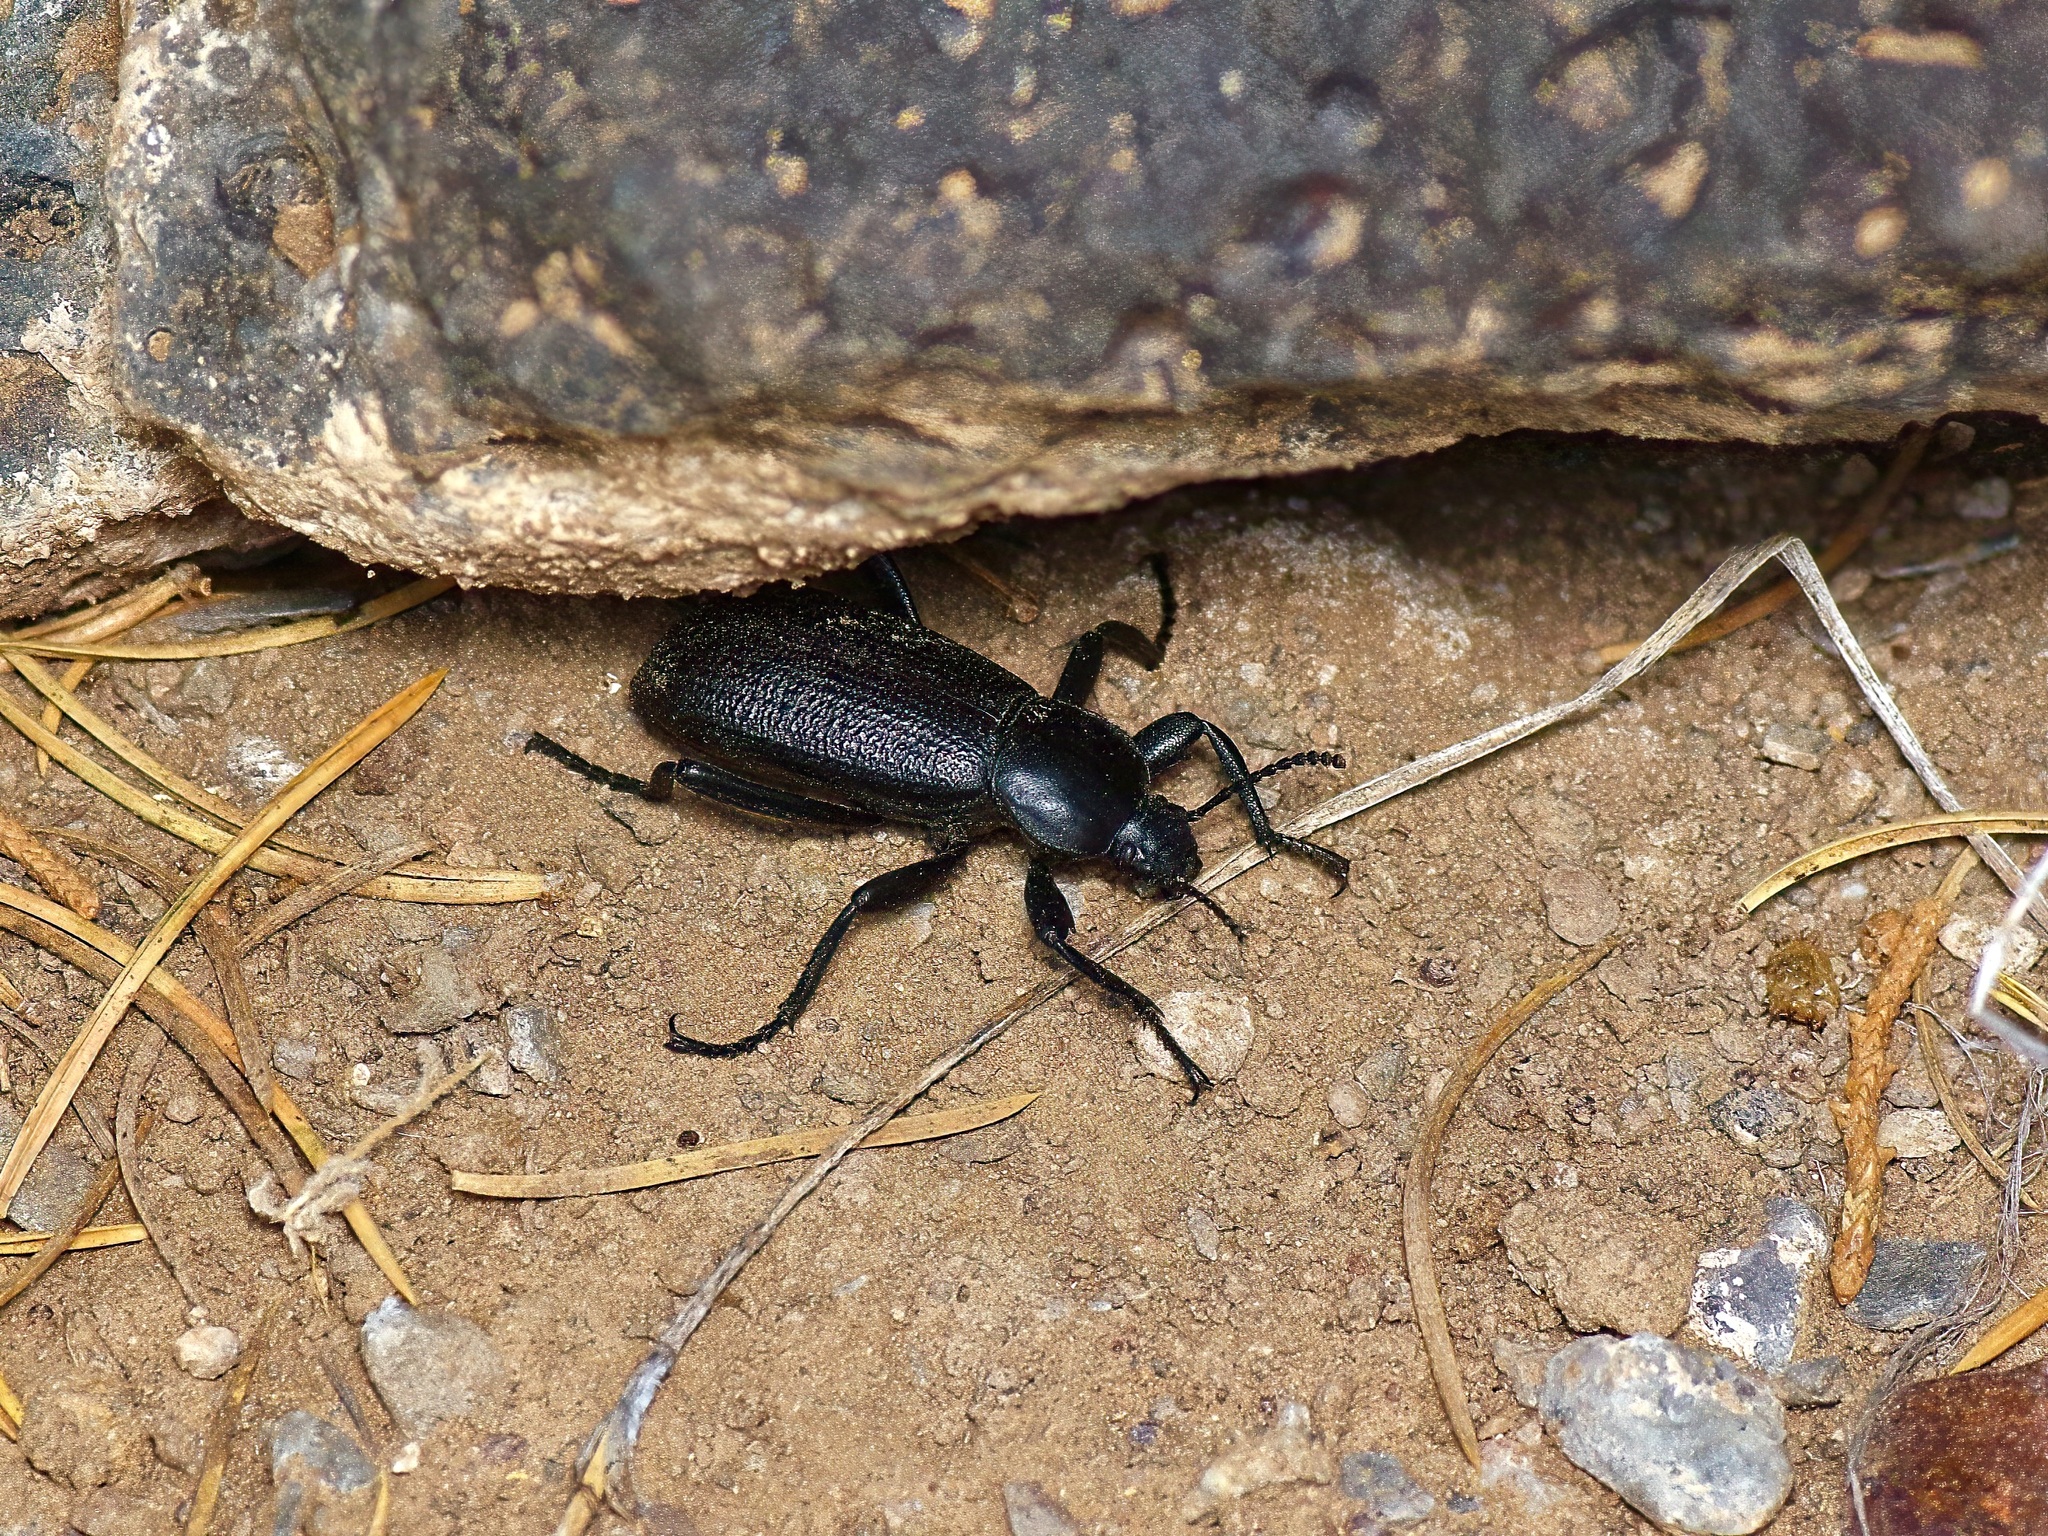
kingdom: Animalia
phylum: Arthropoda
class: Insecta
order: Coleoptera
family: Tenebrionidae
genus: Eleodes
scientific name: Eleodes obscura
